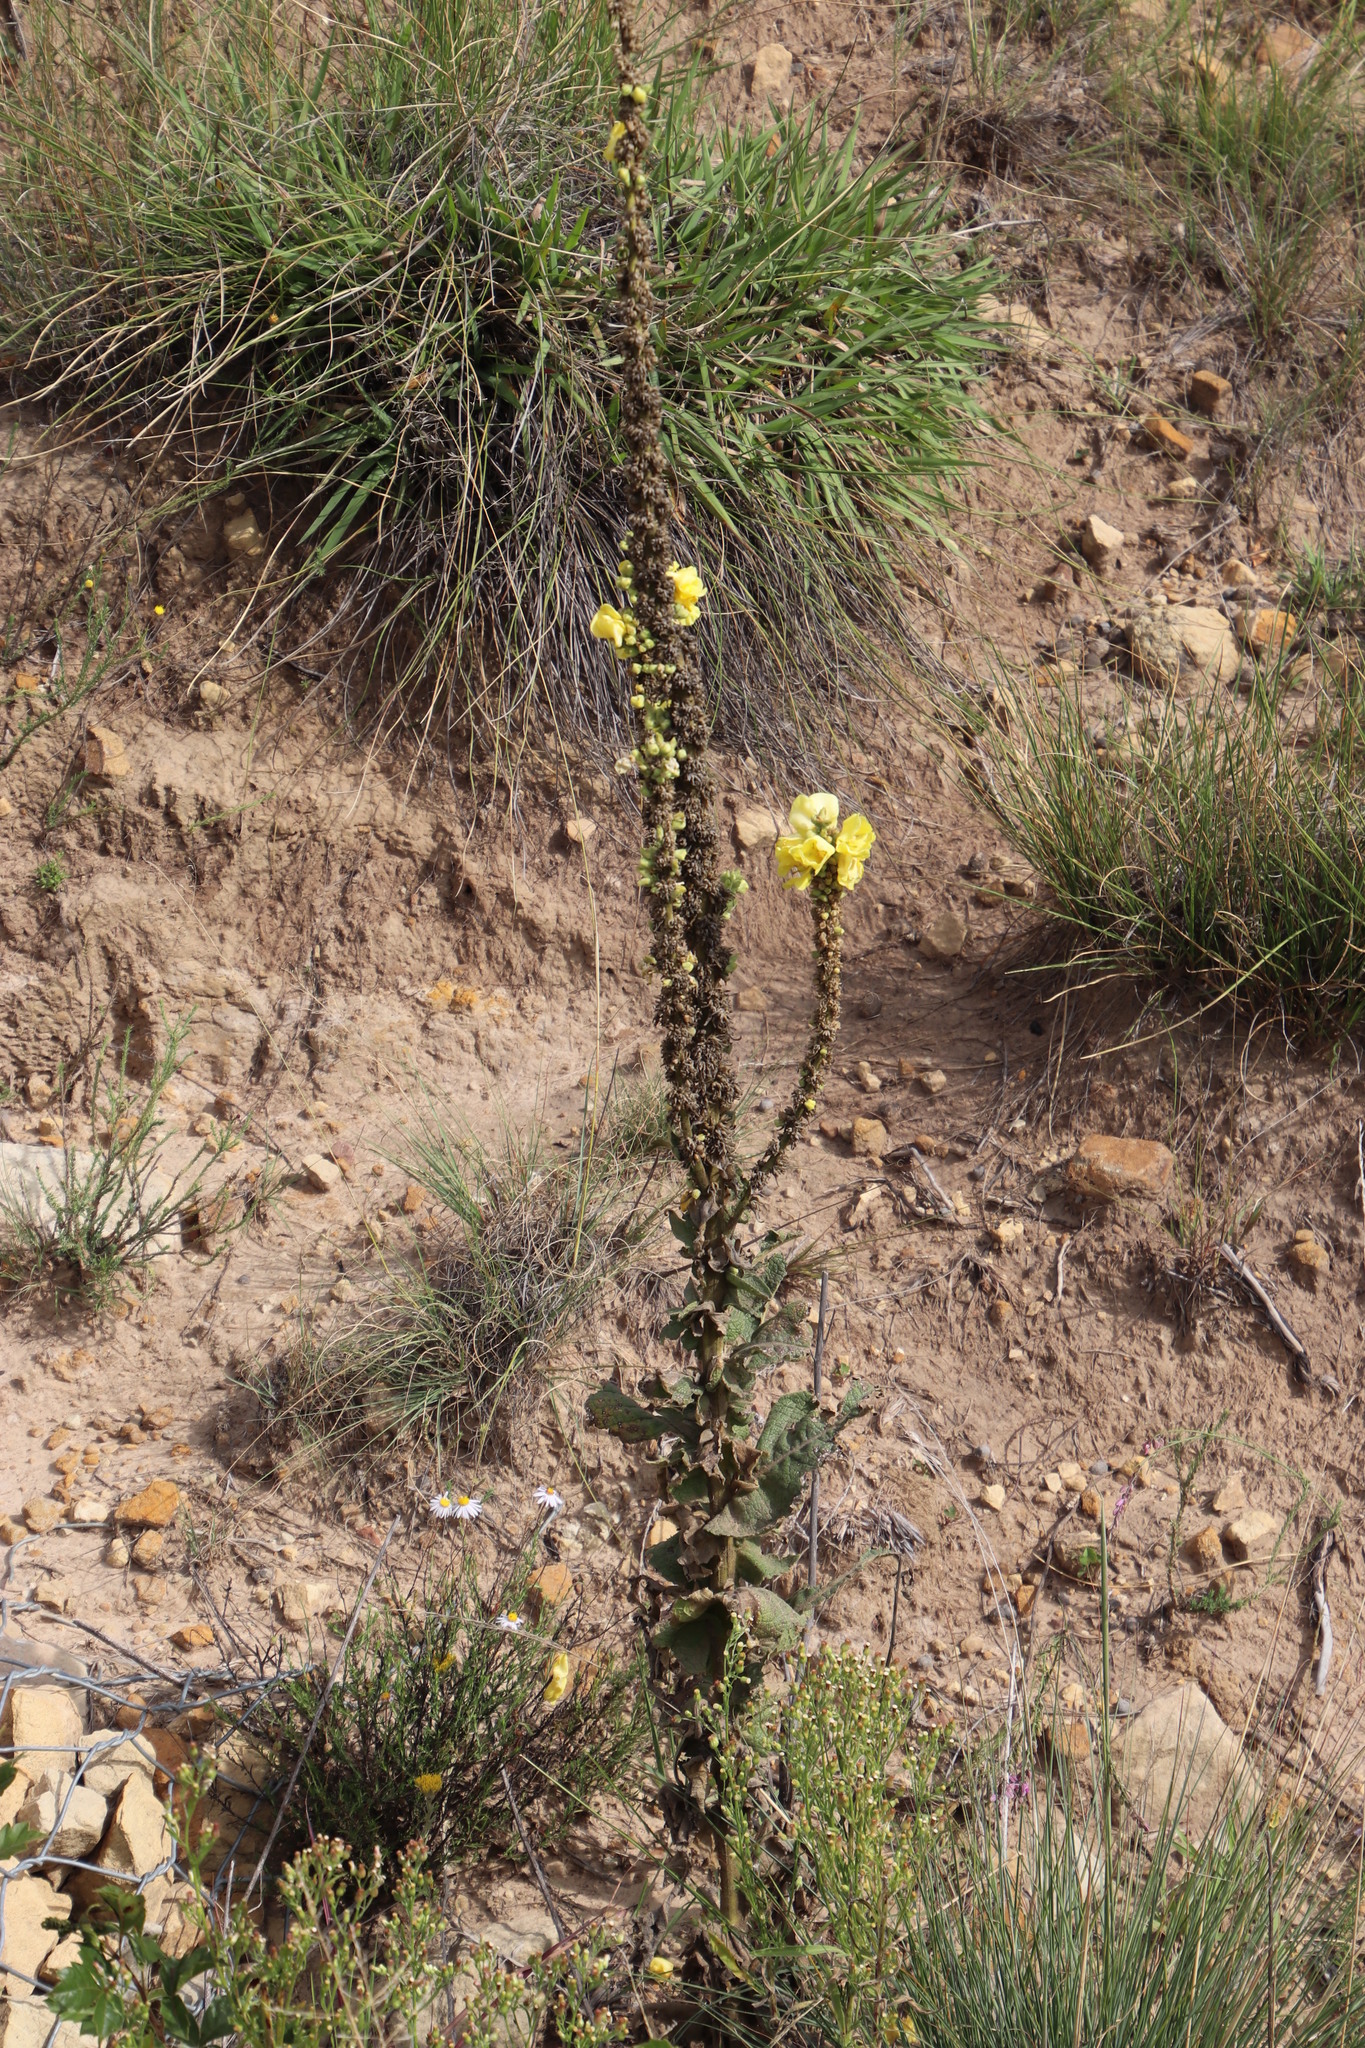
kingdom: Plantae
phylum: Tracheophyta
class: Magnoliopsida
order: Lamiales
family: Scrophulariaceae
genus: Verbascum
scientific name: Verbascum densiflorum
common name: Dense-flowered mullein
